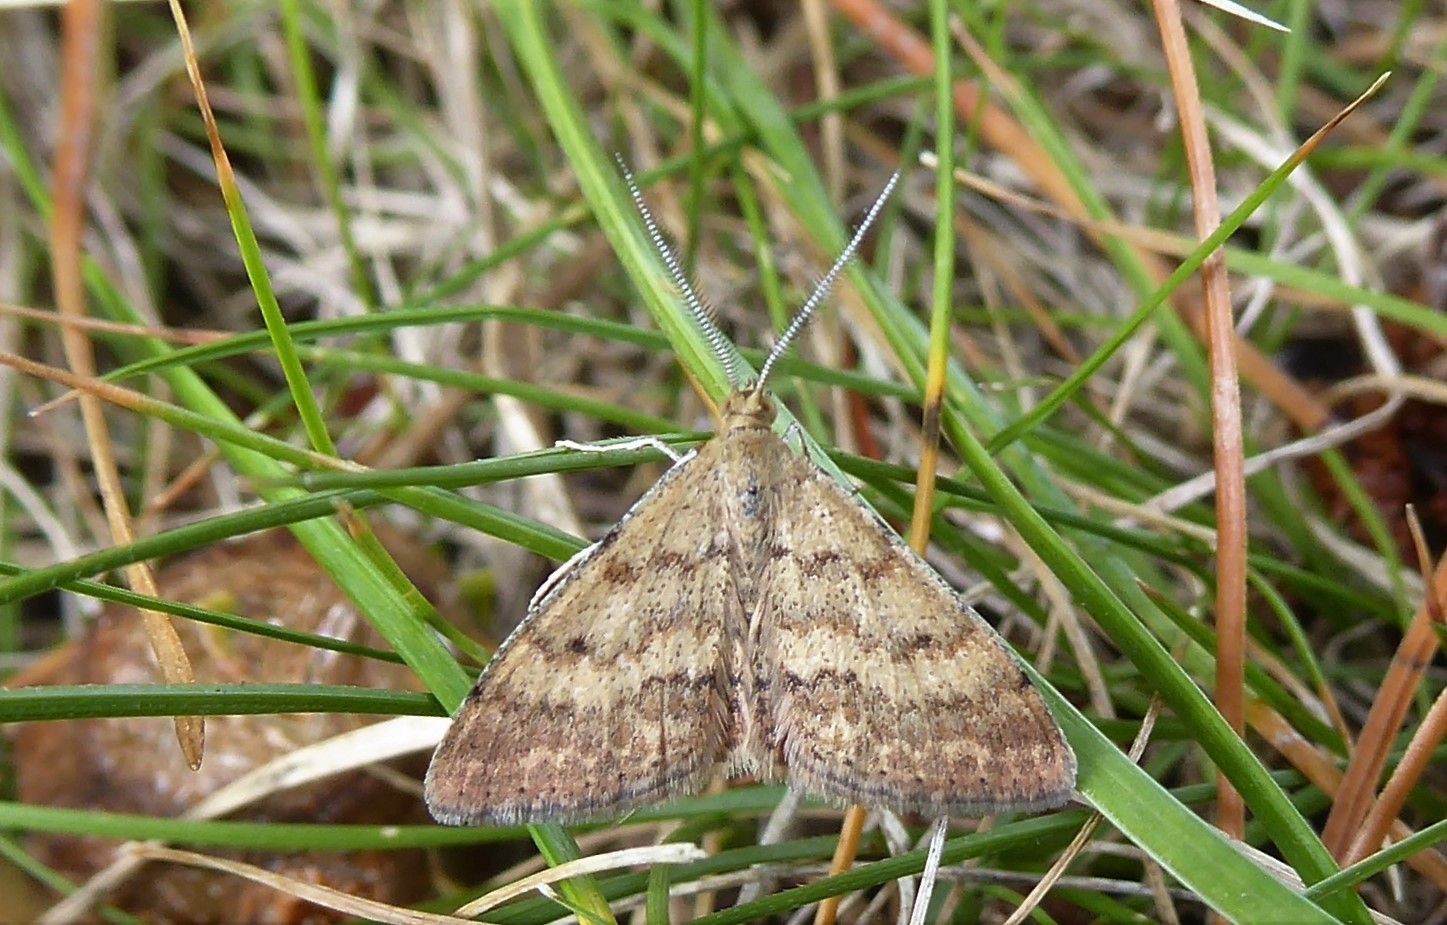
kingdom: Animalia
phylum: Arthropoda
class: Insecta
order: Lepidoptera
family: Geometridae
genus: Scopula
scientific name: Scopula rubraria
